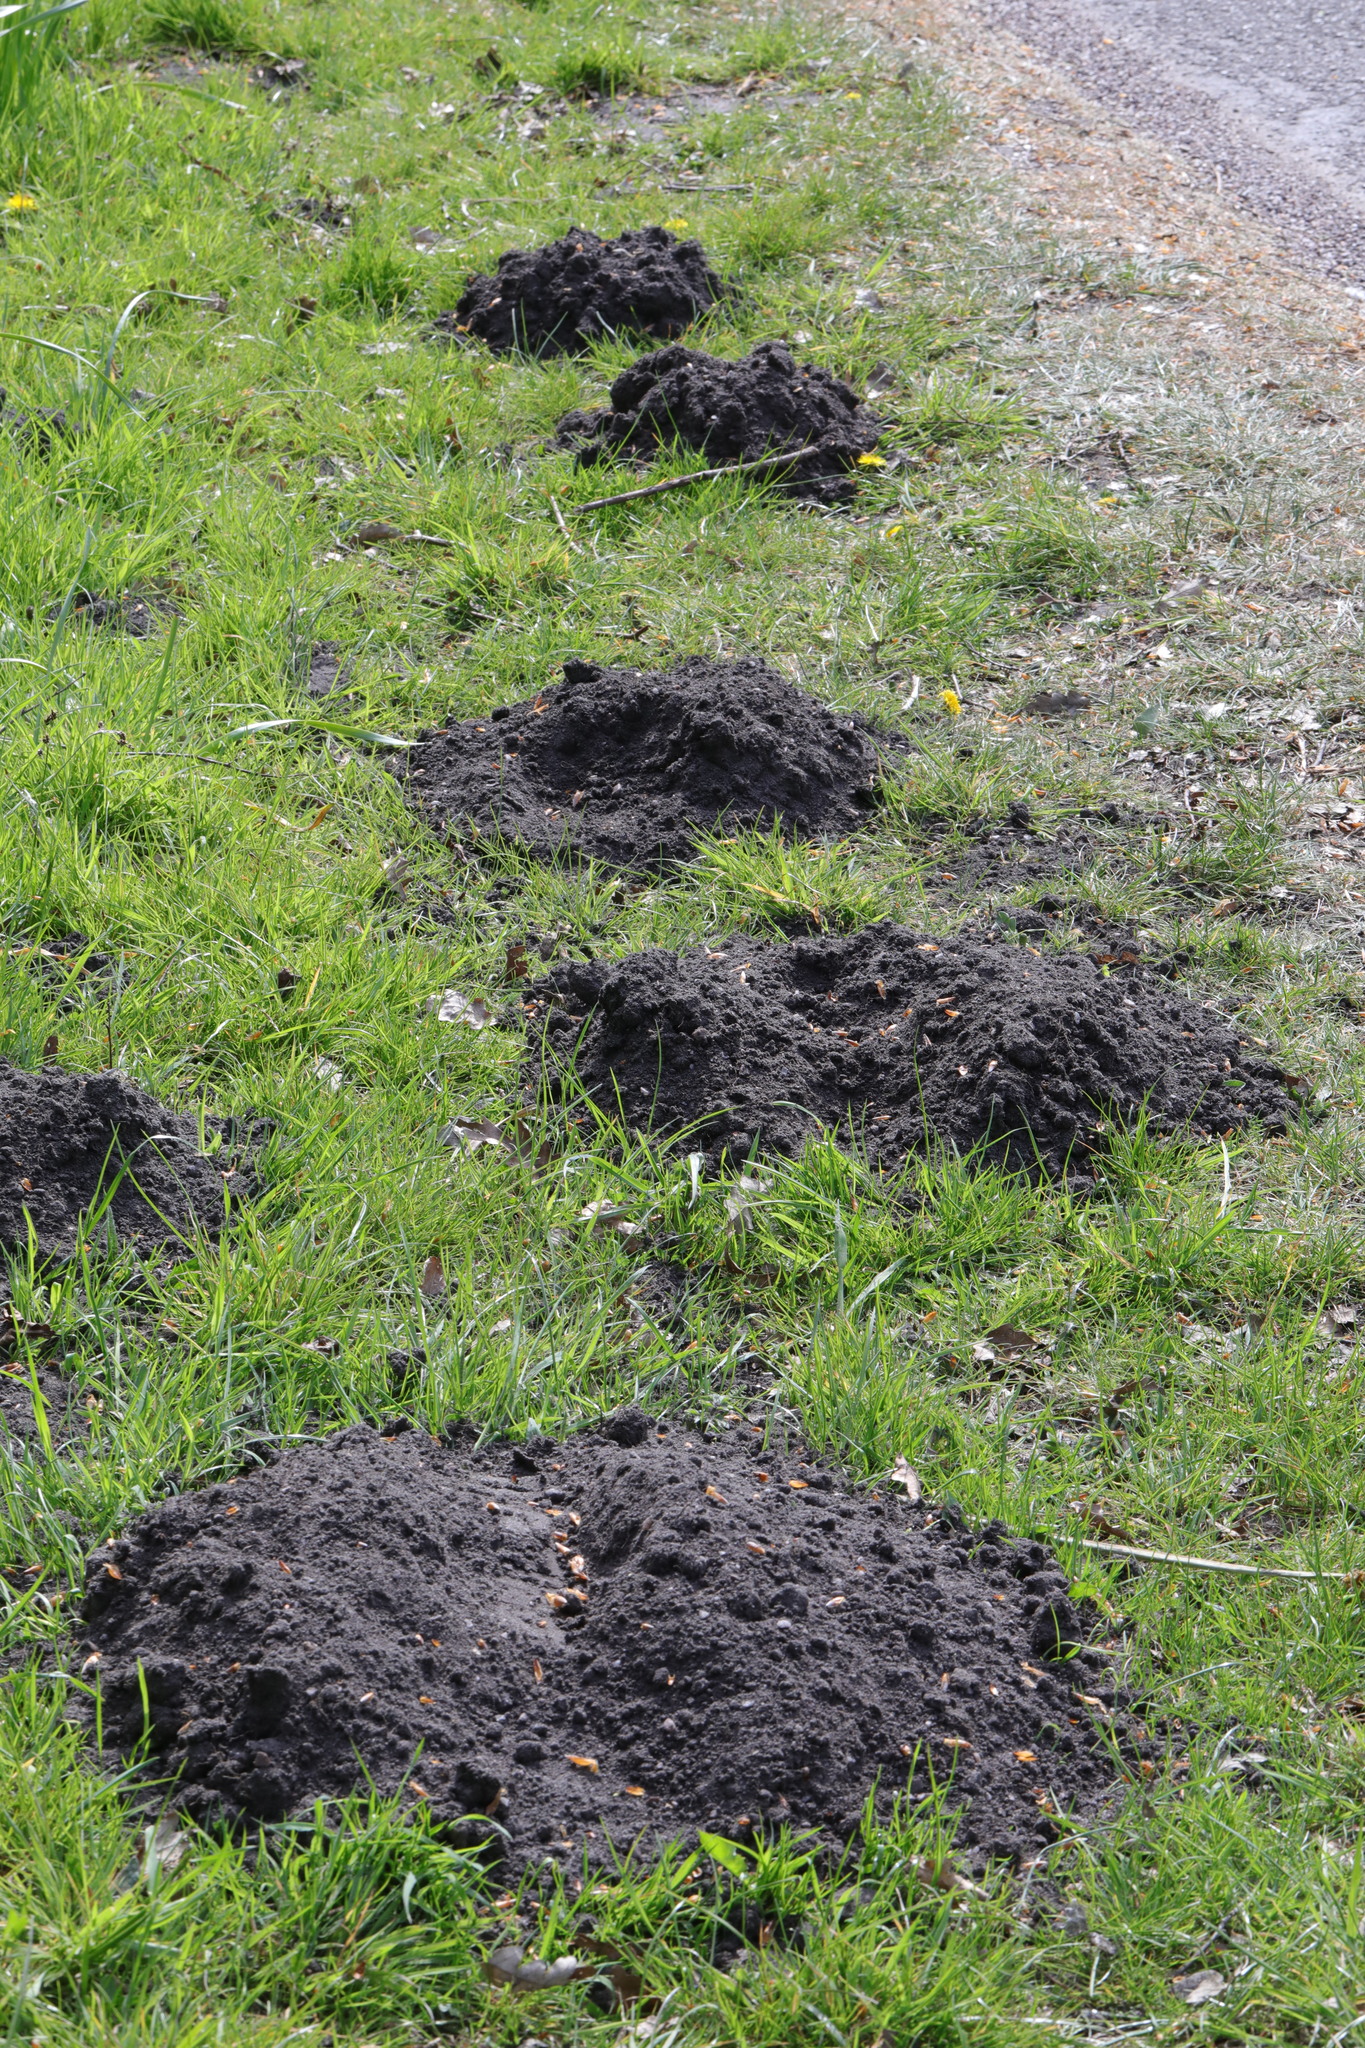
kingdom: Animalia
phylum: Chordata
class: Mammalia
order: Soricomorpha
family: Talpidae
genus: Talpa
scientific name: Talpa europaea
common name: European mole
